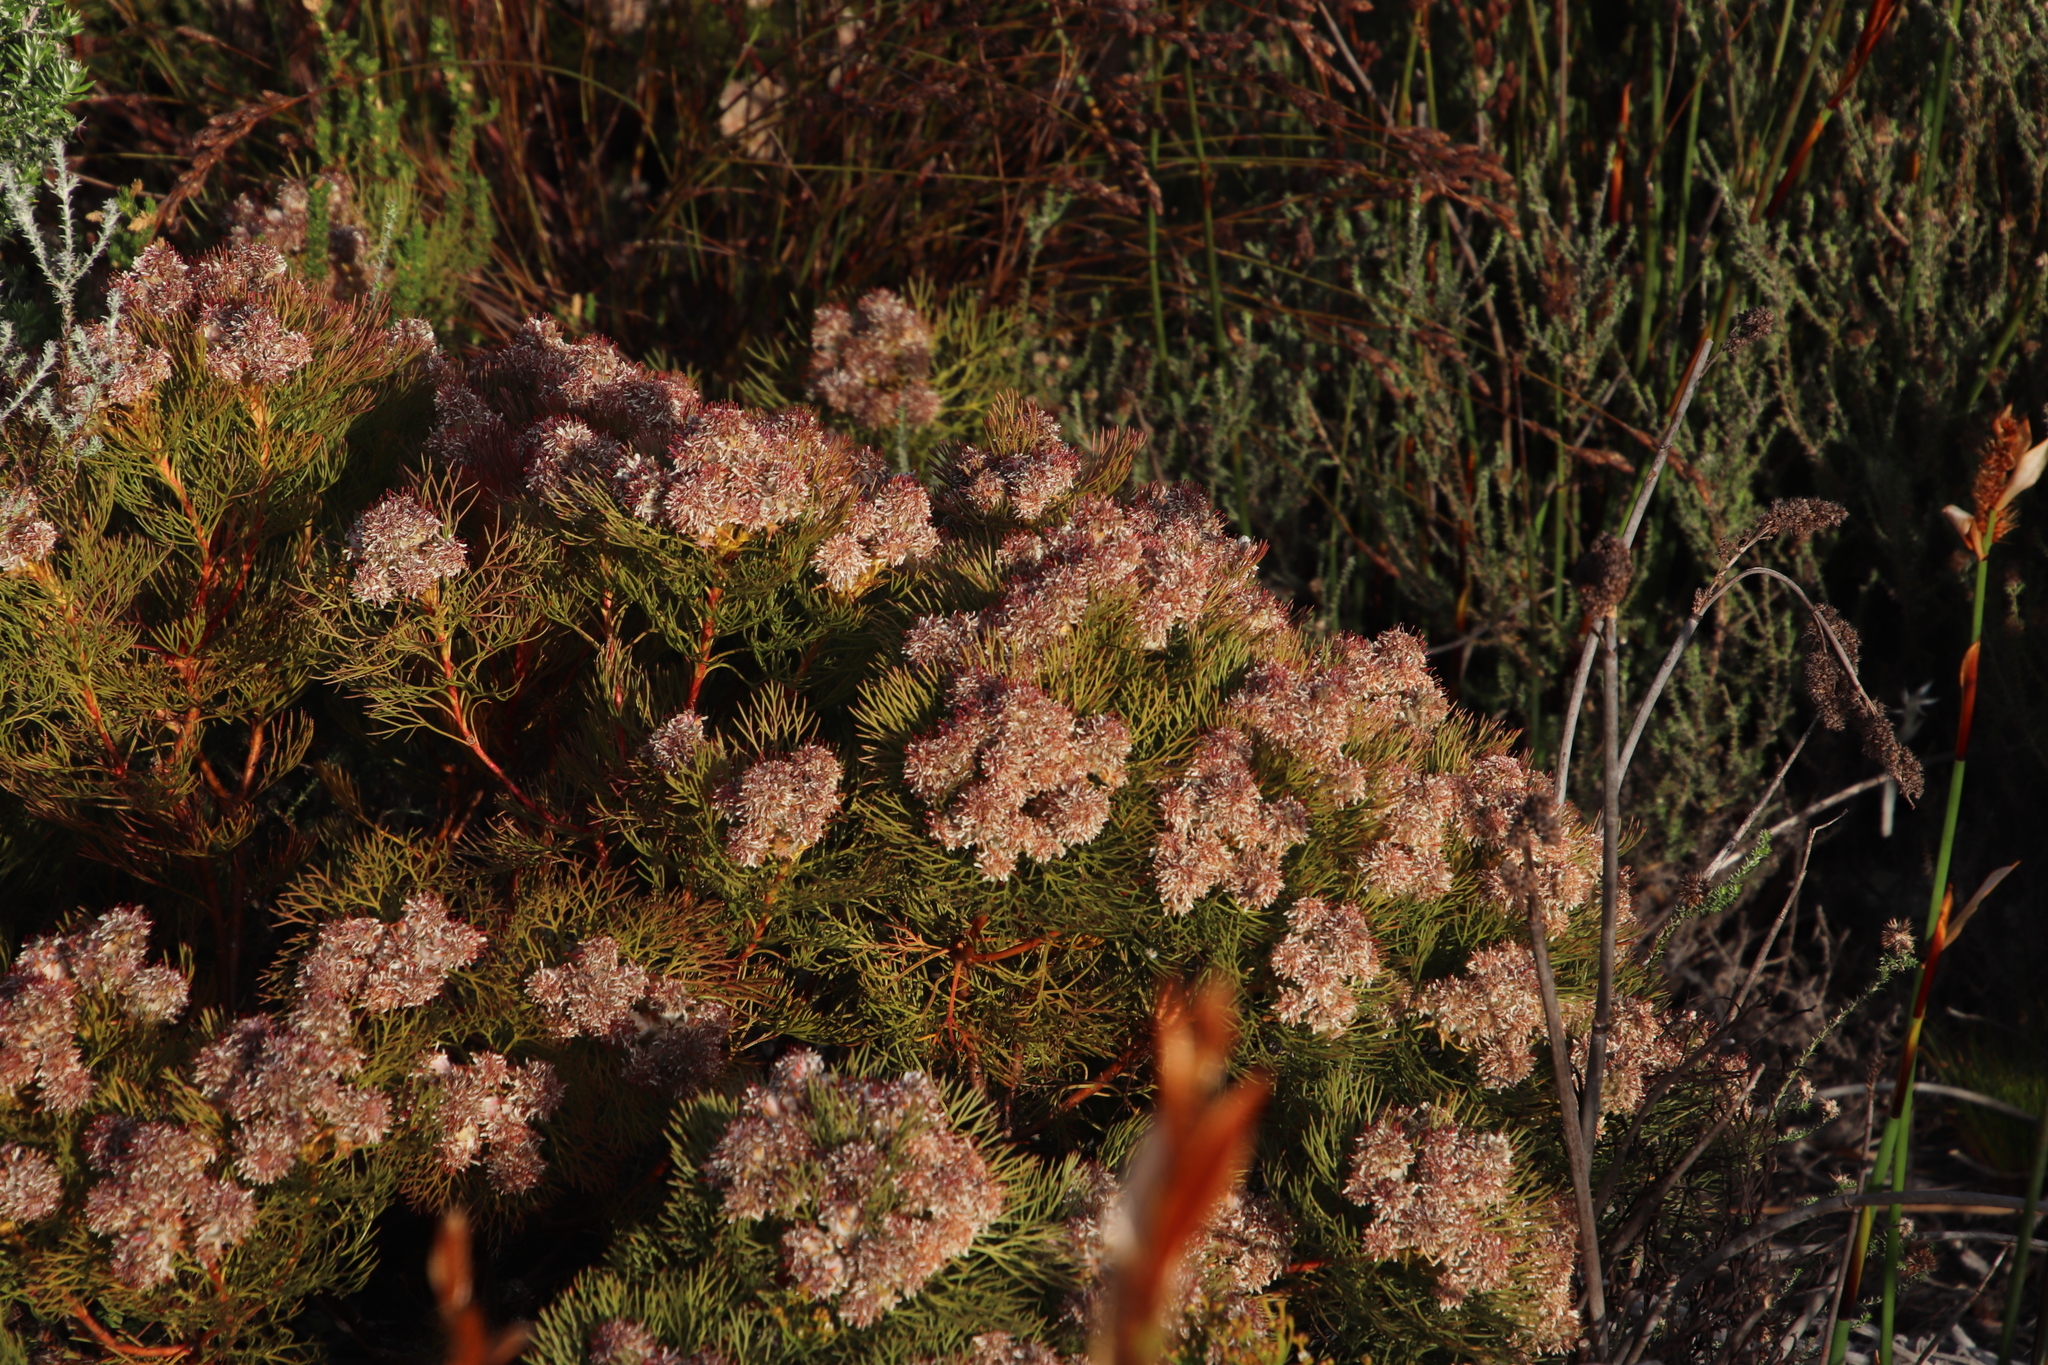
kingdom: Plantae
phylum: Tracheophyta
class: Magnoliopsida
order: Proteales
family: Proteaceae
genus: Serruria
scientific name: Serruria glomerata
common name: Cluster spiderhead
